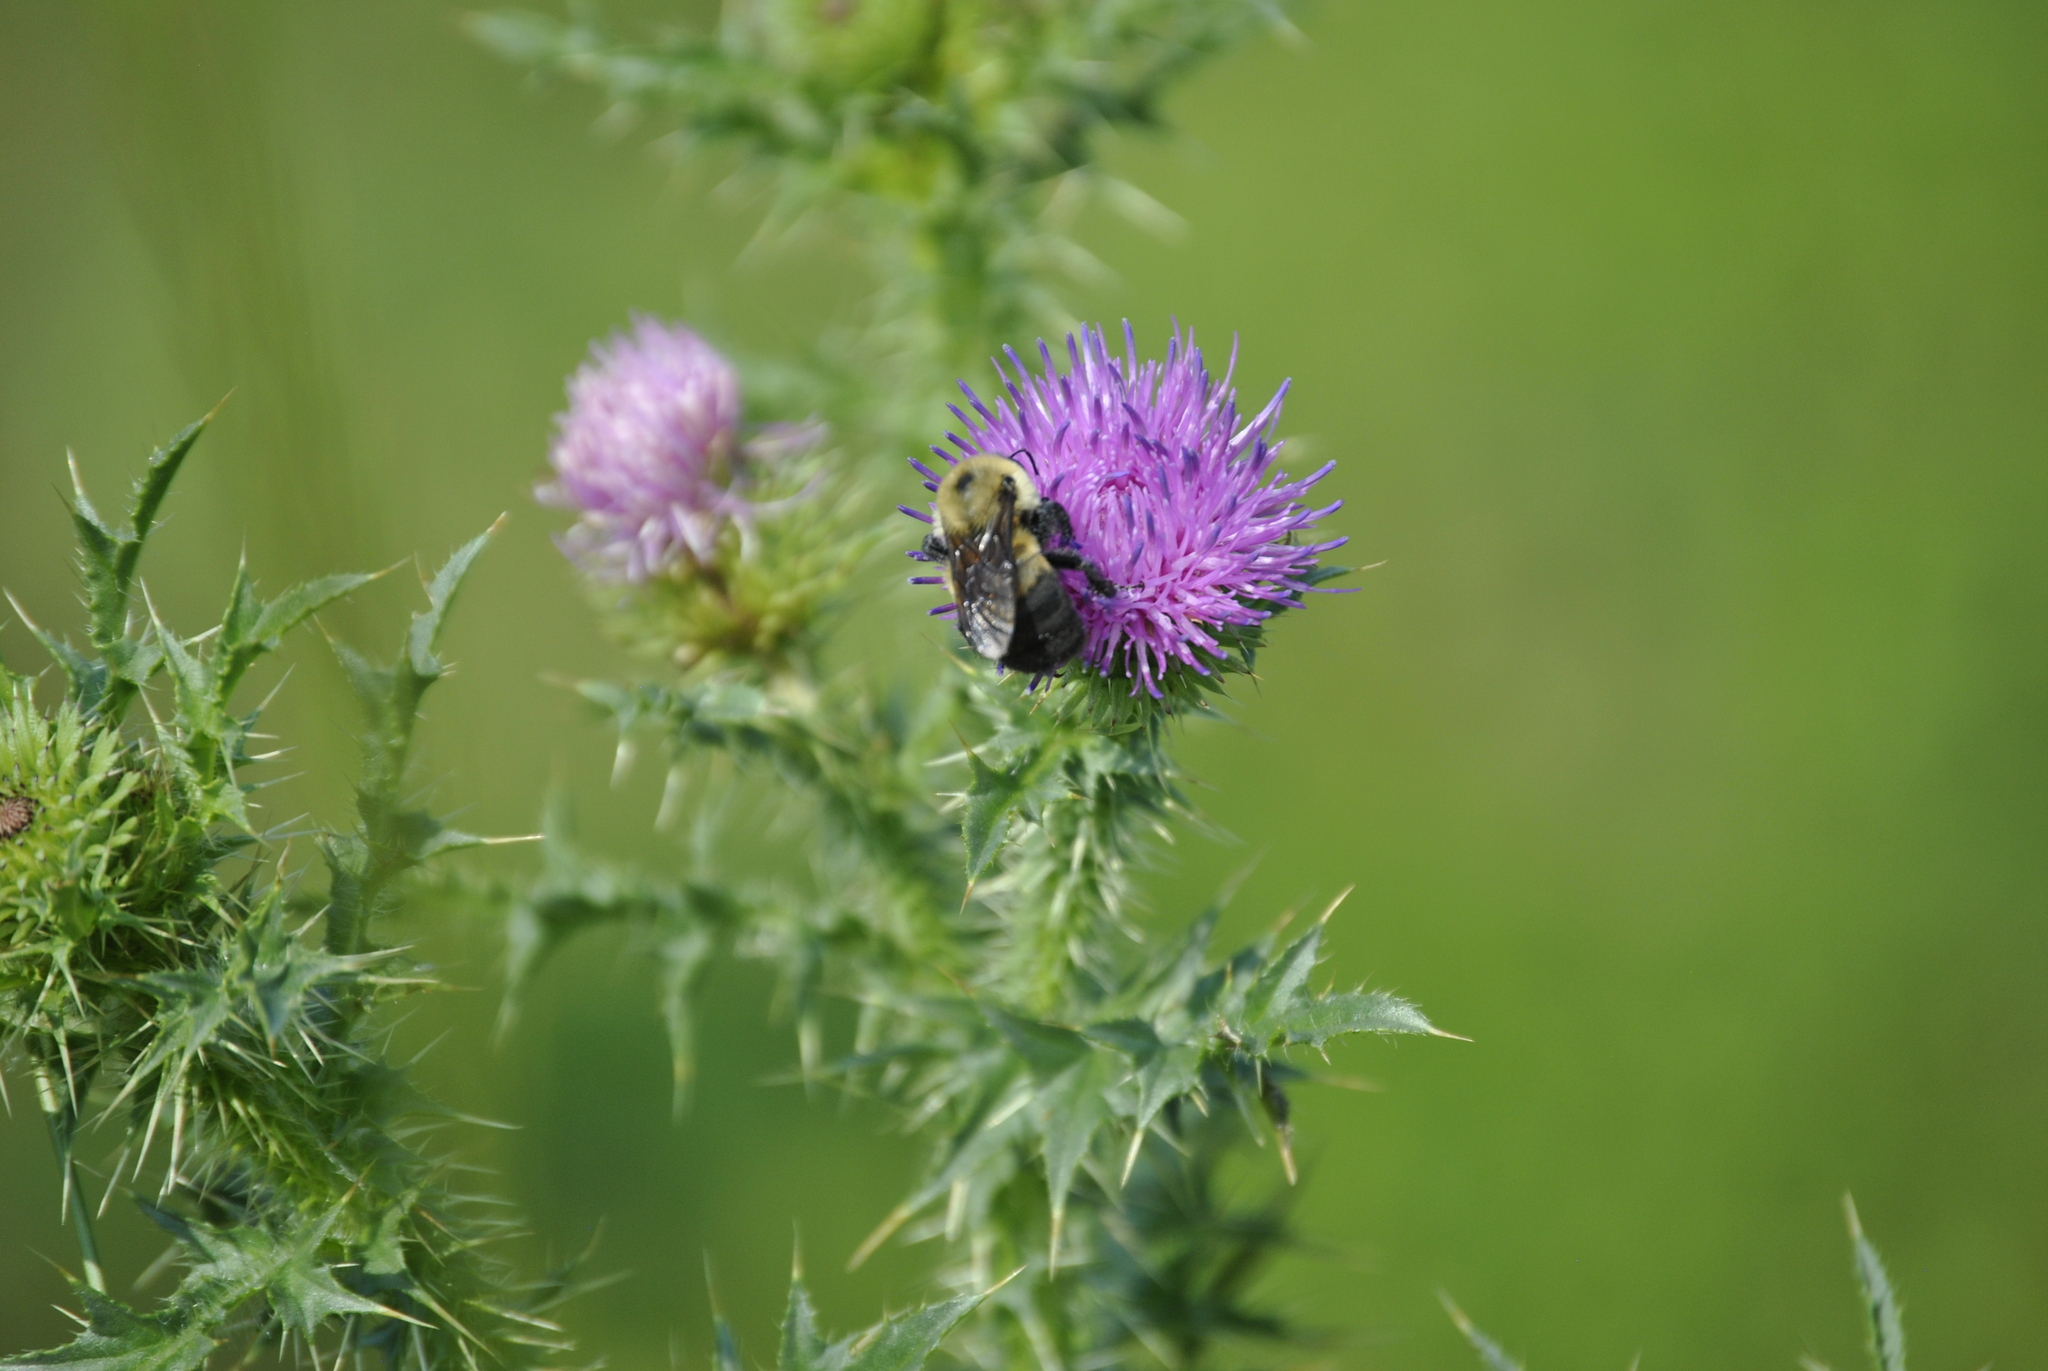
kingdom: Plantae
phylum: Tracheophyta
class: Magnoliopsida
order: Asterales
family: Asteraceae
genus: Carduus
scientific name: Carduus acanthoides
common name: Plumeless thistle
